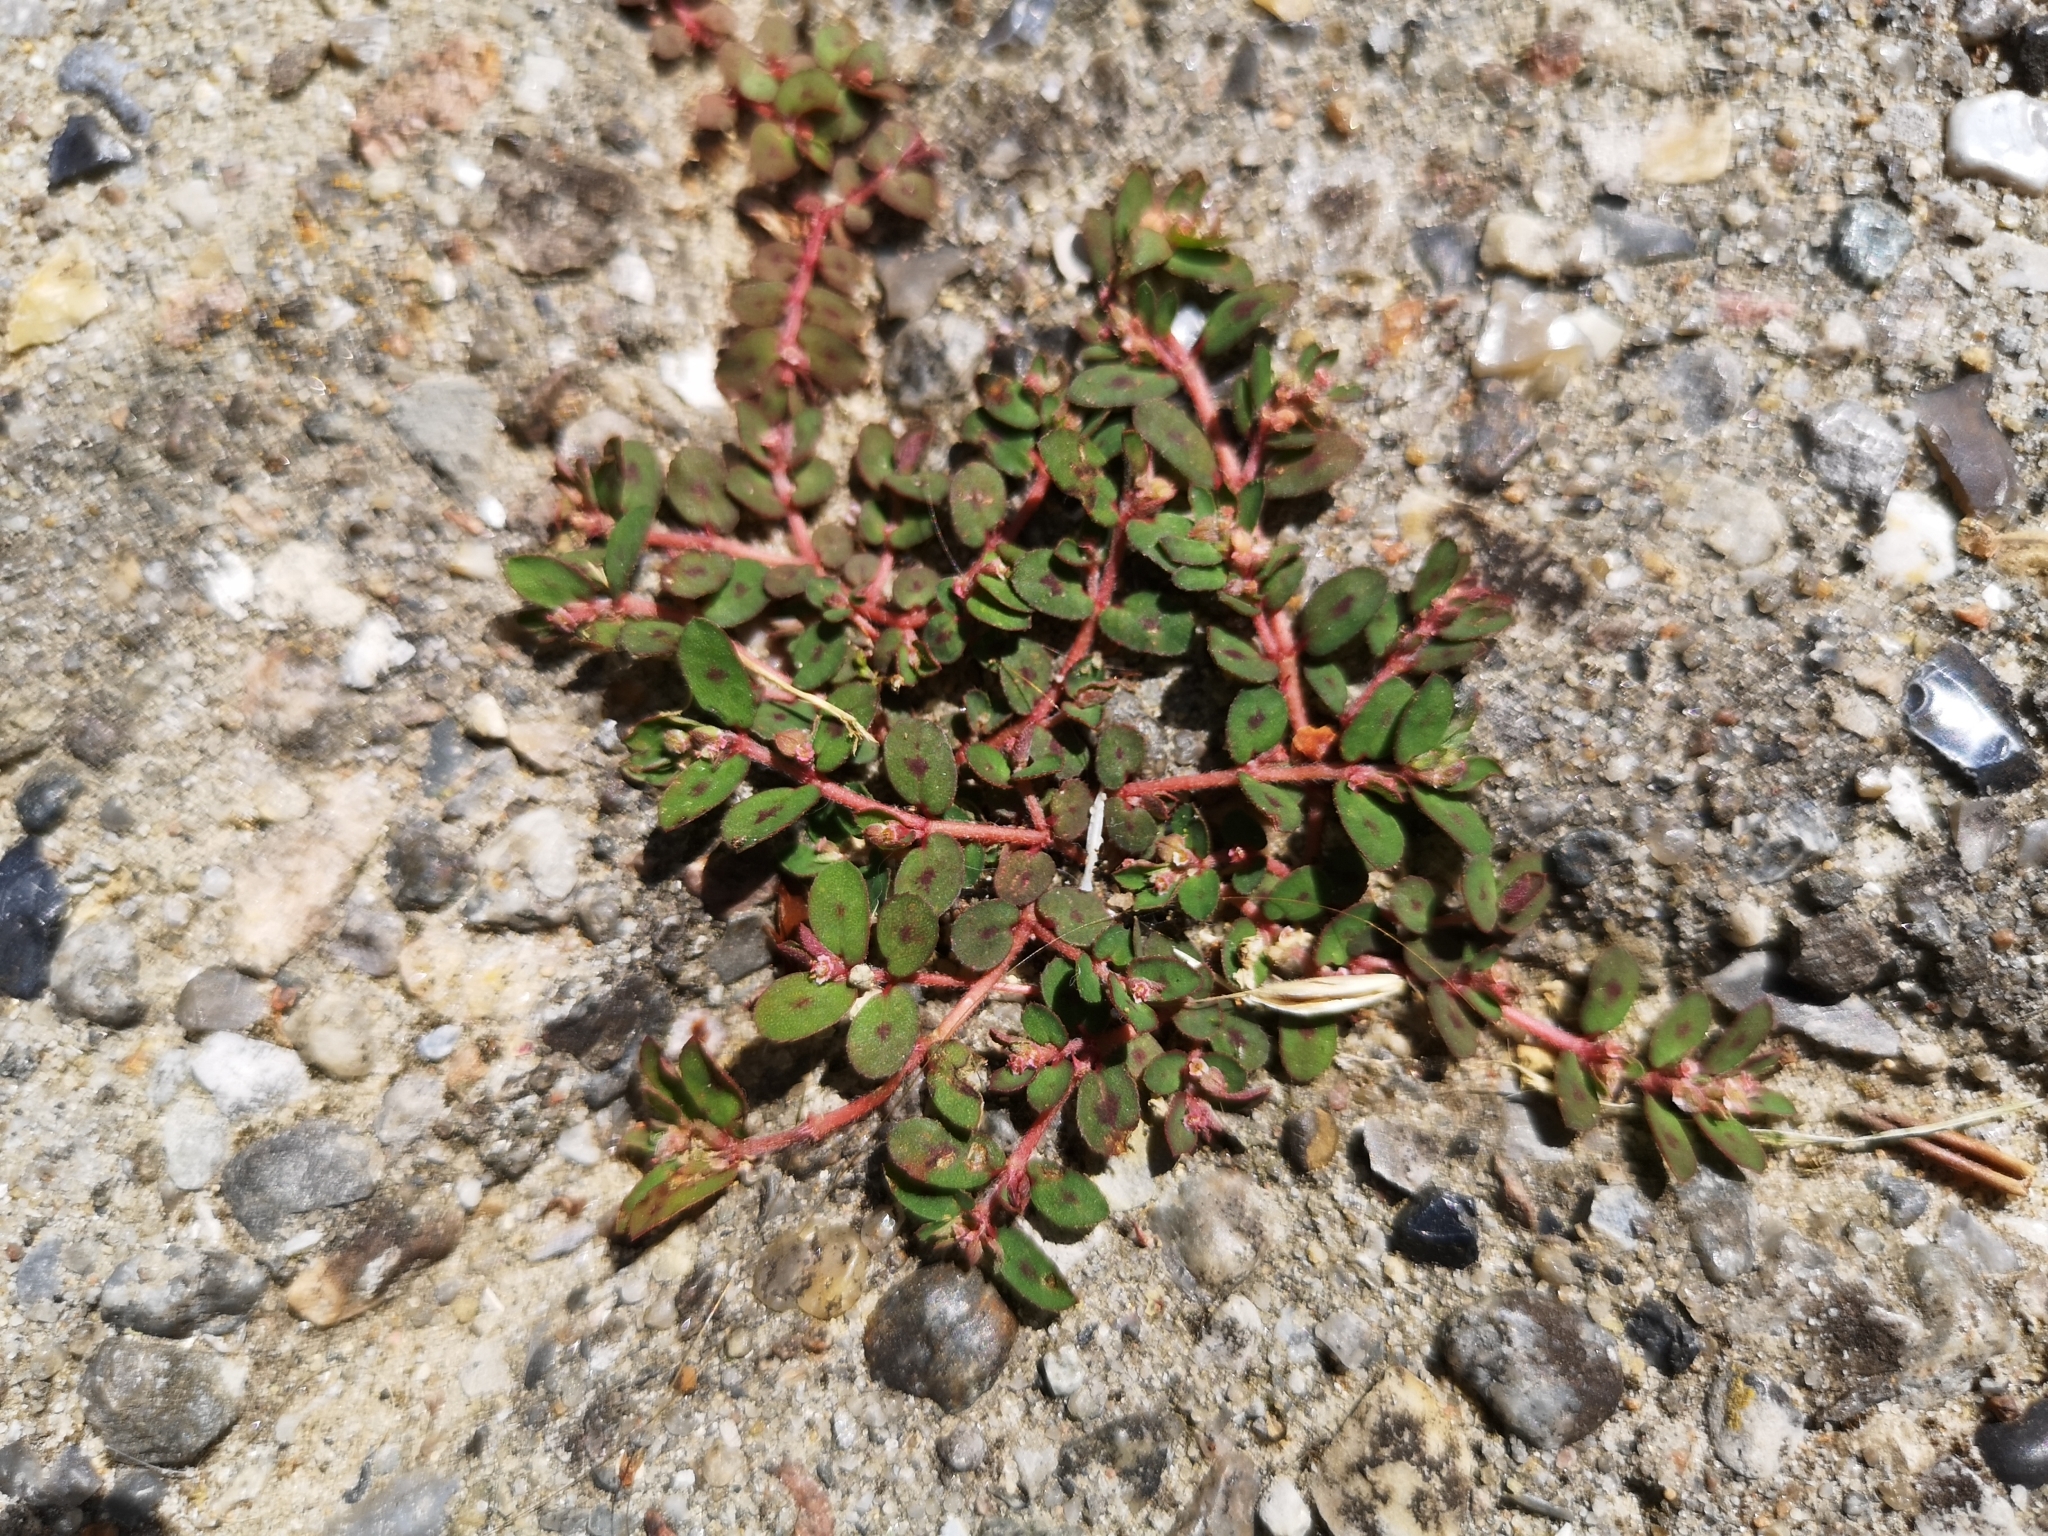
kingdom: Plantae
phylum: Tracheophyta
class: Magnoliopsida
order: Malpighiales
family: Euphorbiaceae
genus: Euphorbia
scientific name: Euphorbia maculata
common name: Spotted spurge
